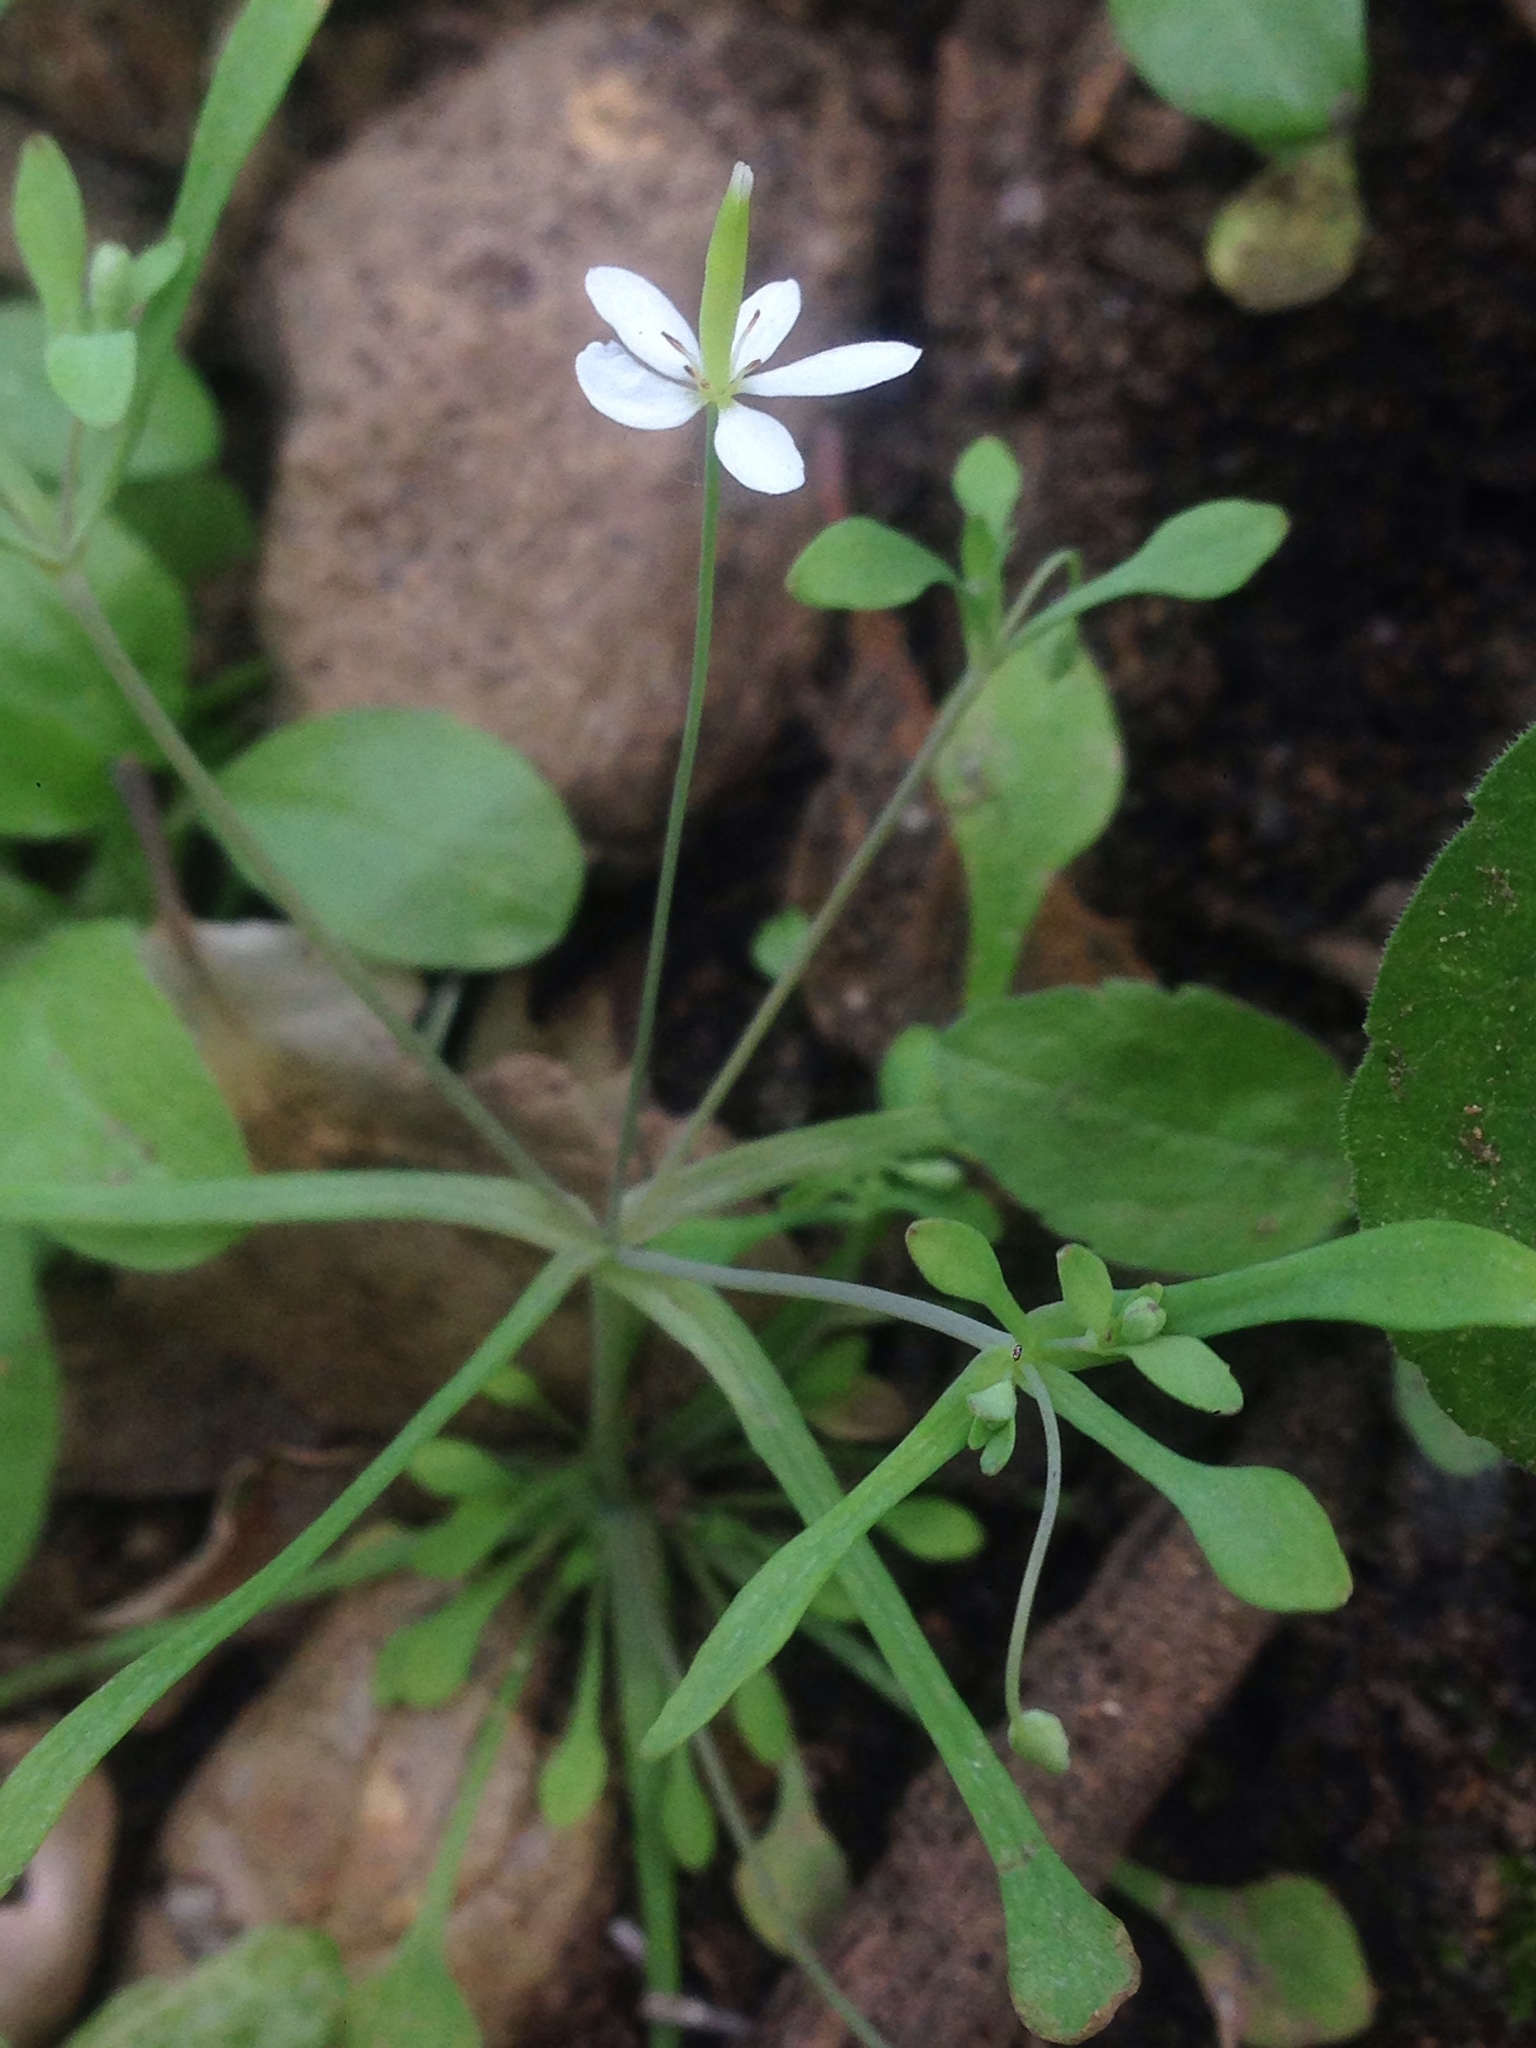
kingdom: Plantae
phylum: Tracheophyta
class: Magnoliopsida
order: Ranunculales
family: Papaveraceae
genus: Meconella
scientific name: Meconella denticulata
